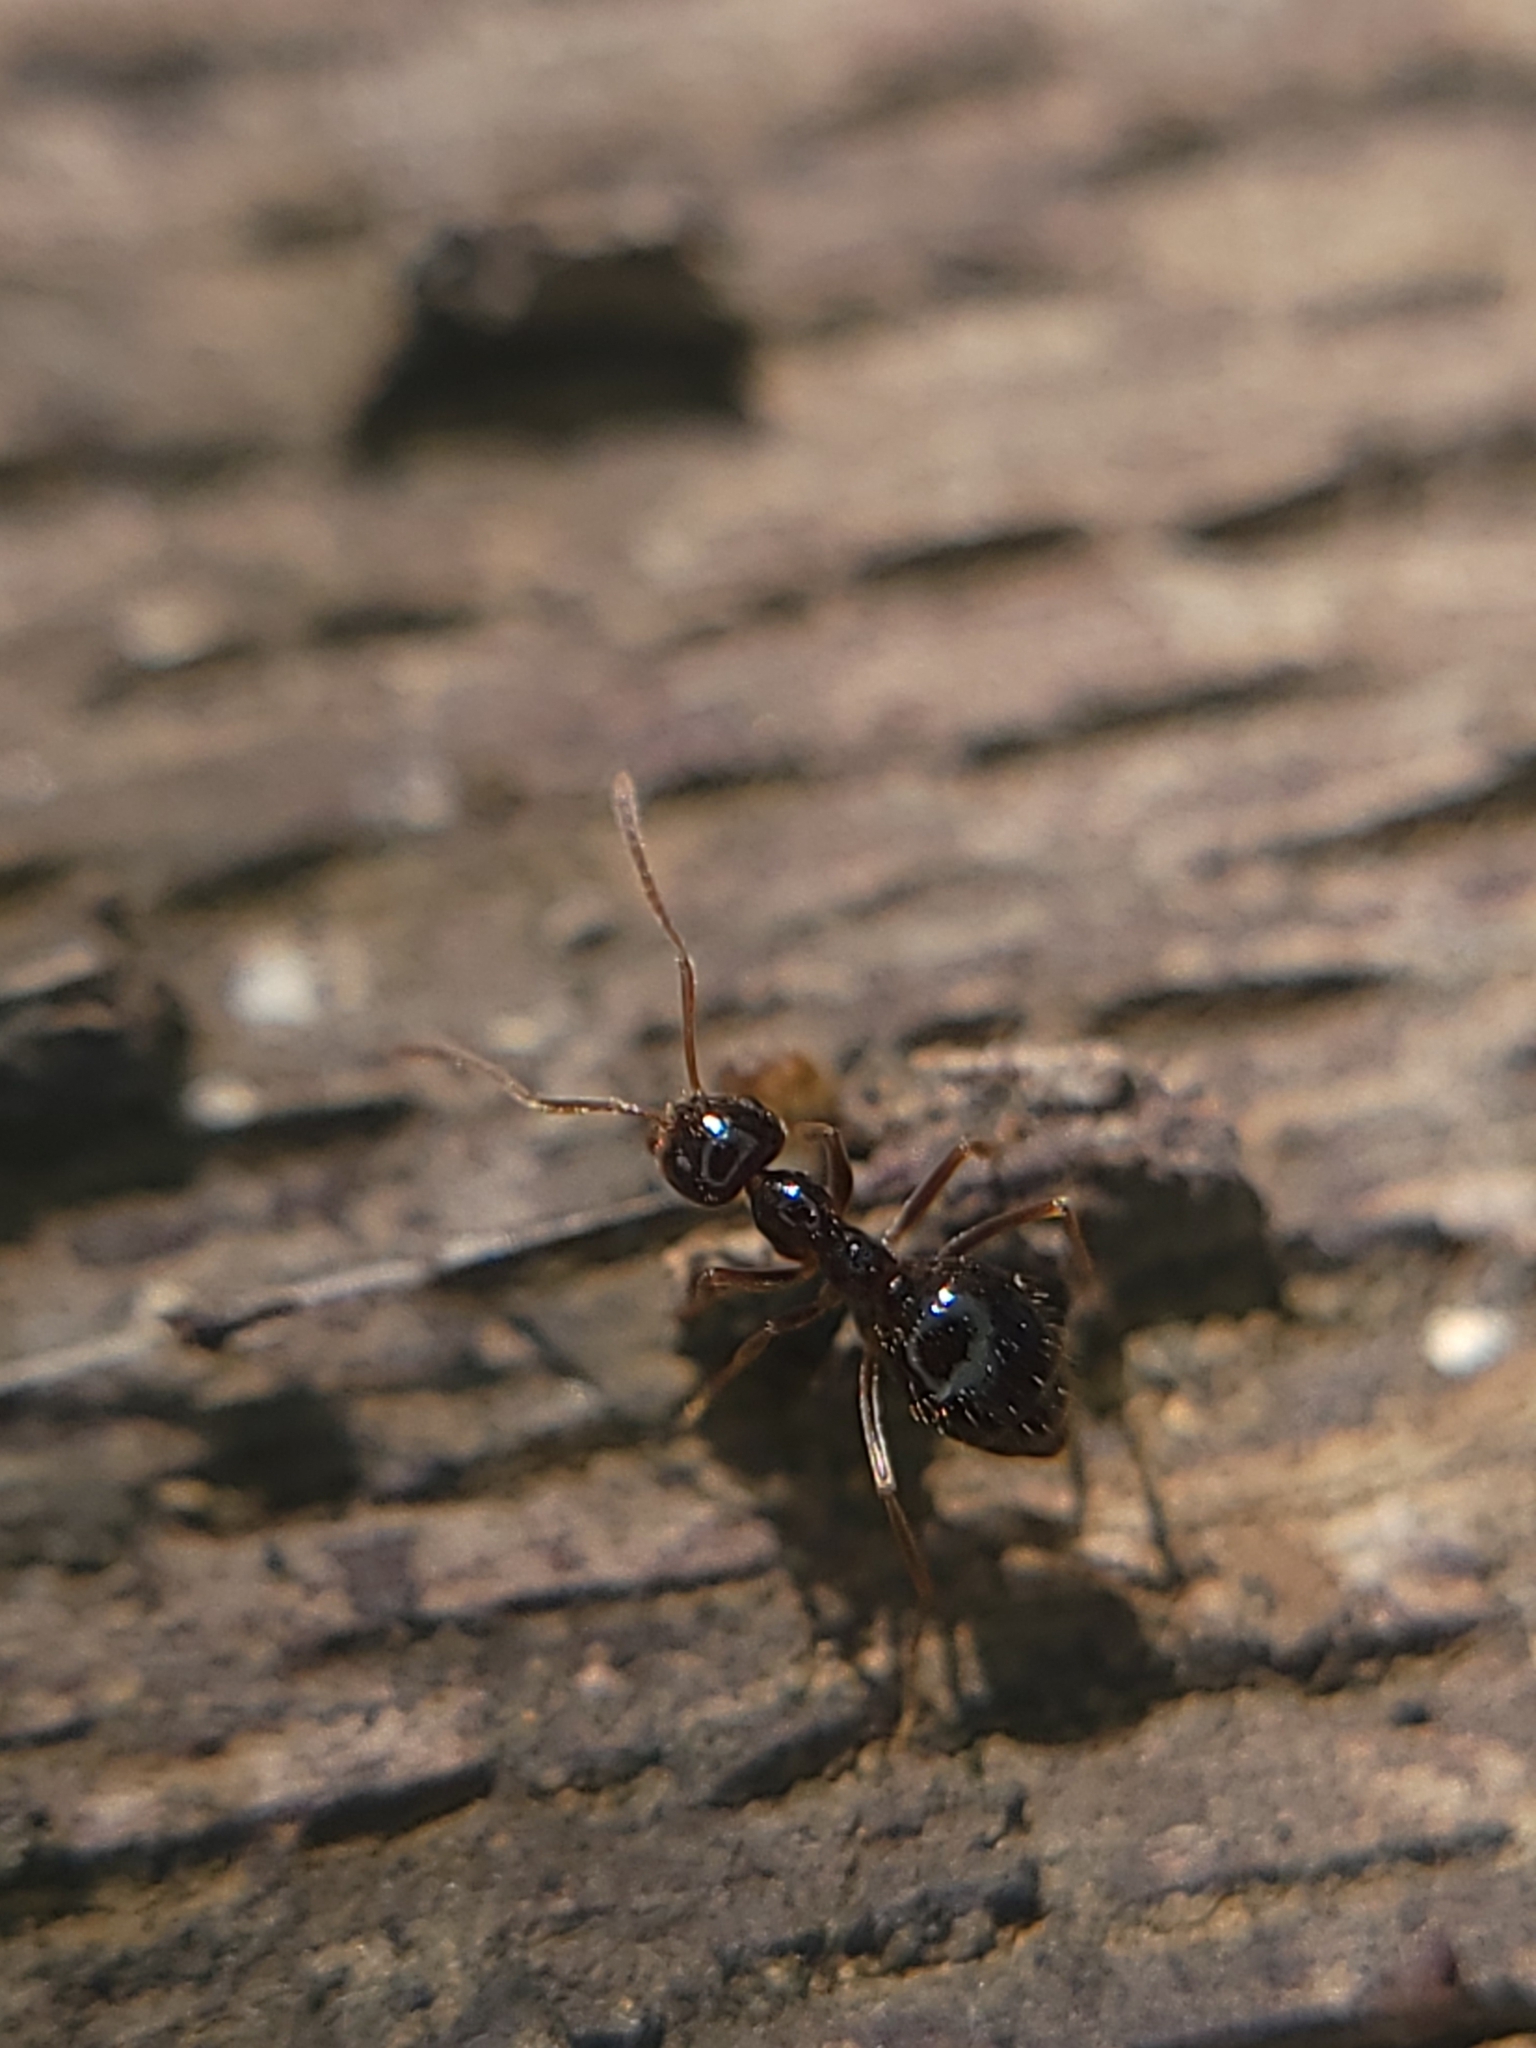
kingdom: Animalia
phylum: Arthropoda
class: Insecta
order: Hymenoptera
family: Formicidae
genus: Prenolepis
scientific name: Prenolepis imparis
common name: Small honey ant
